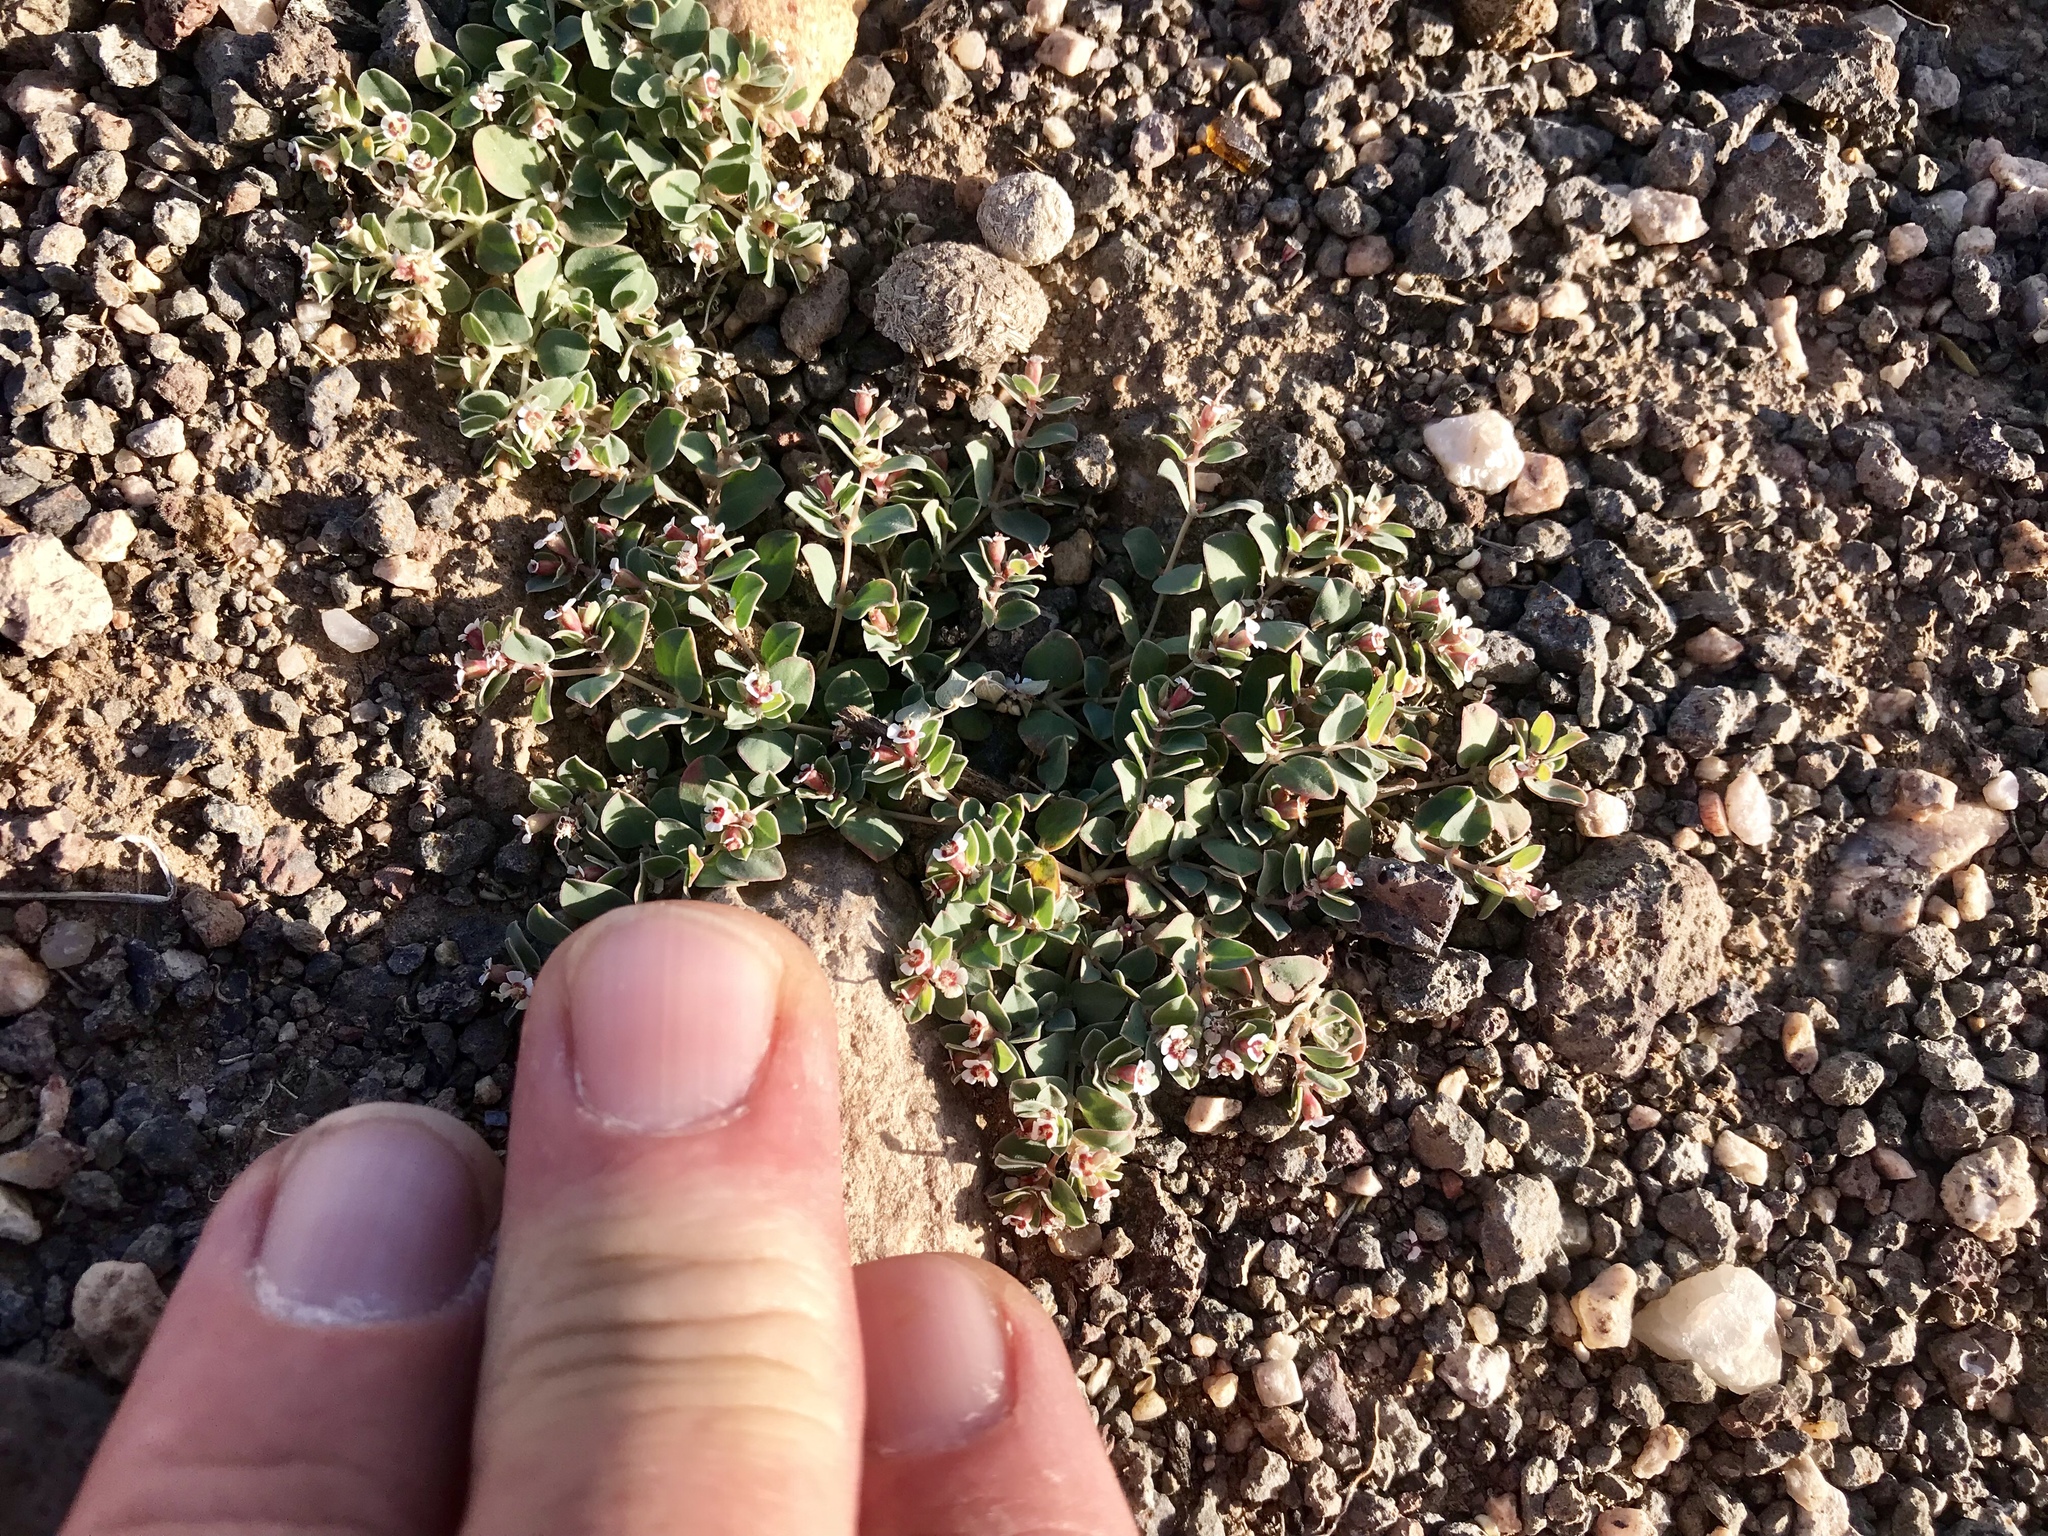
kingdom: Plantae
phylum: Tracheophyta
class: Magnoliopsida
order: Malpighiales
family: Euphorbiaceae
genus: Euphorbia
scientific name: Euphorbia albomarginata
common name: Whitemargin sandmat
